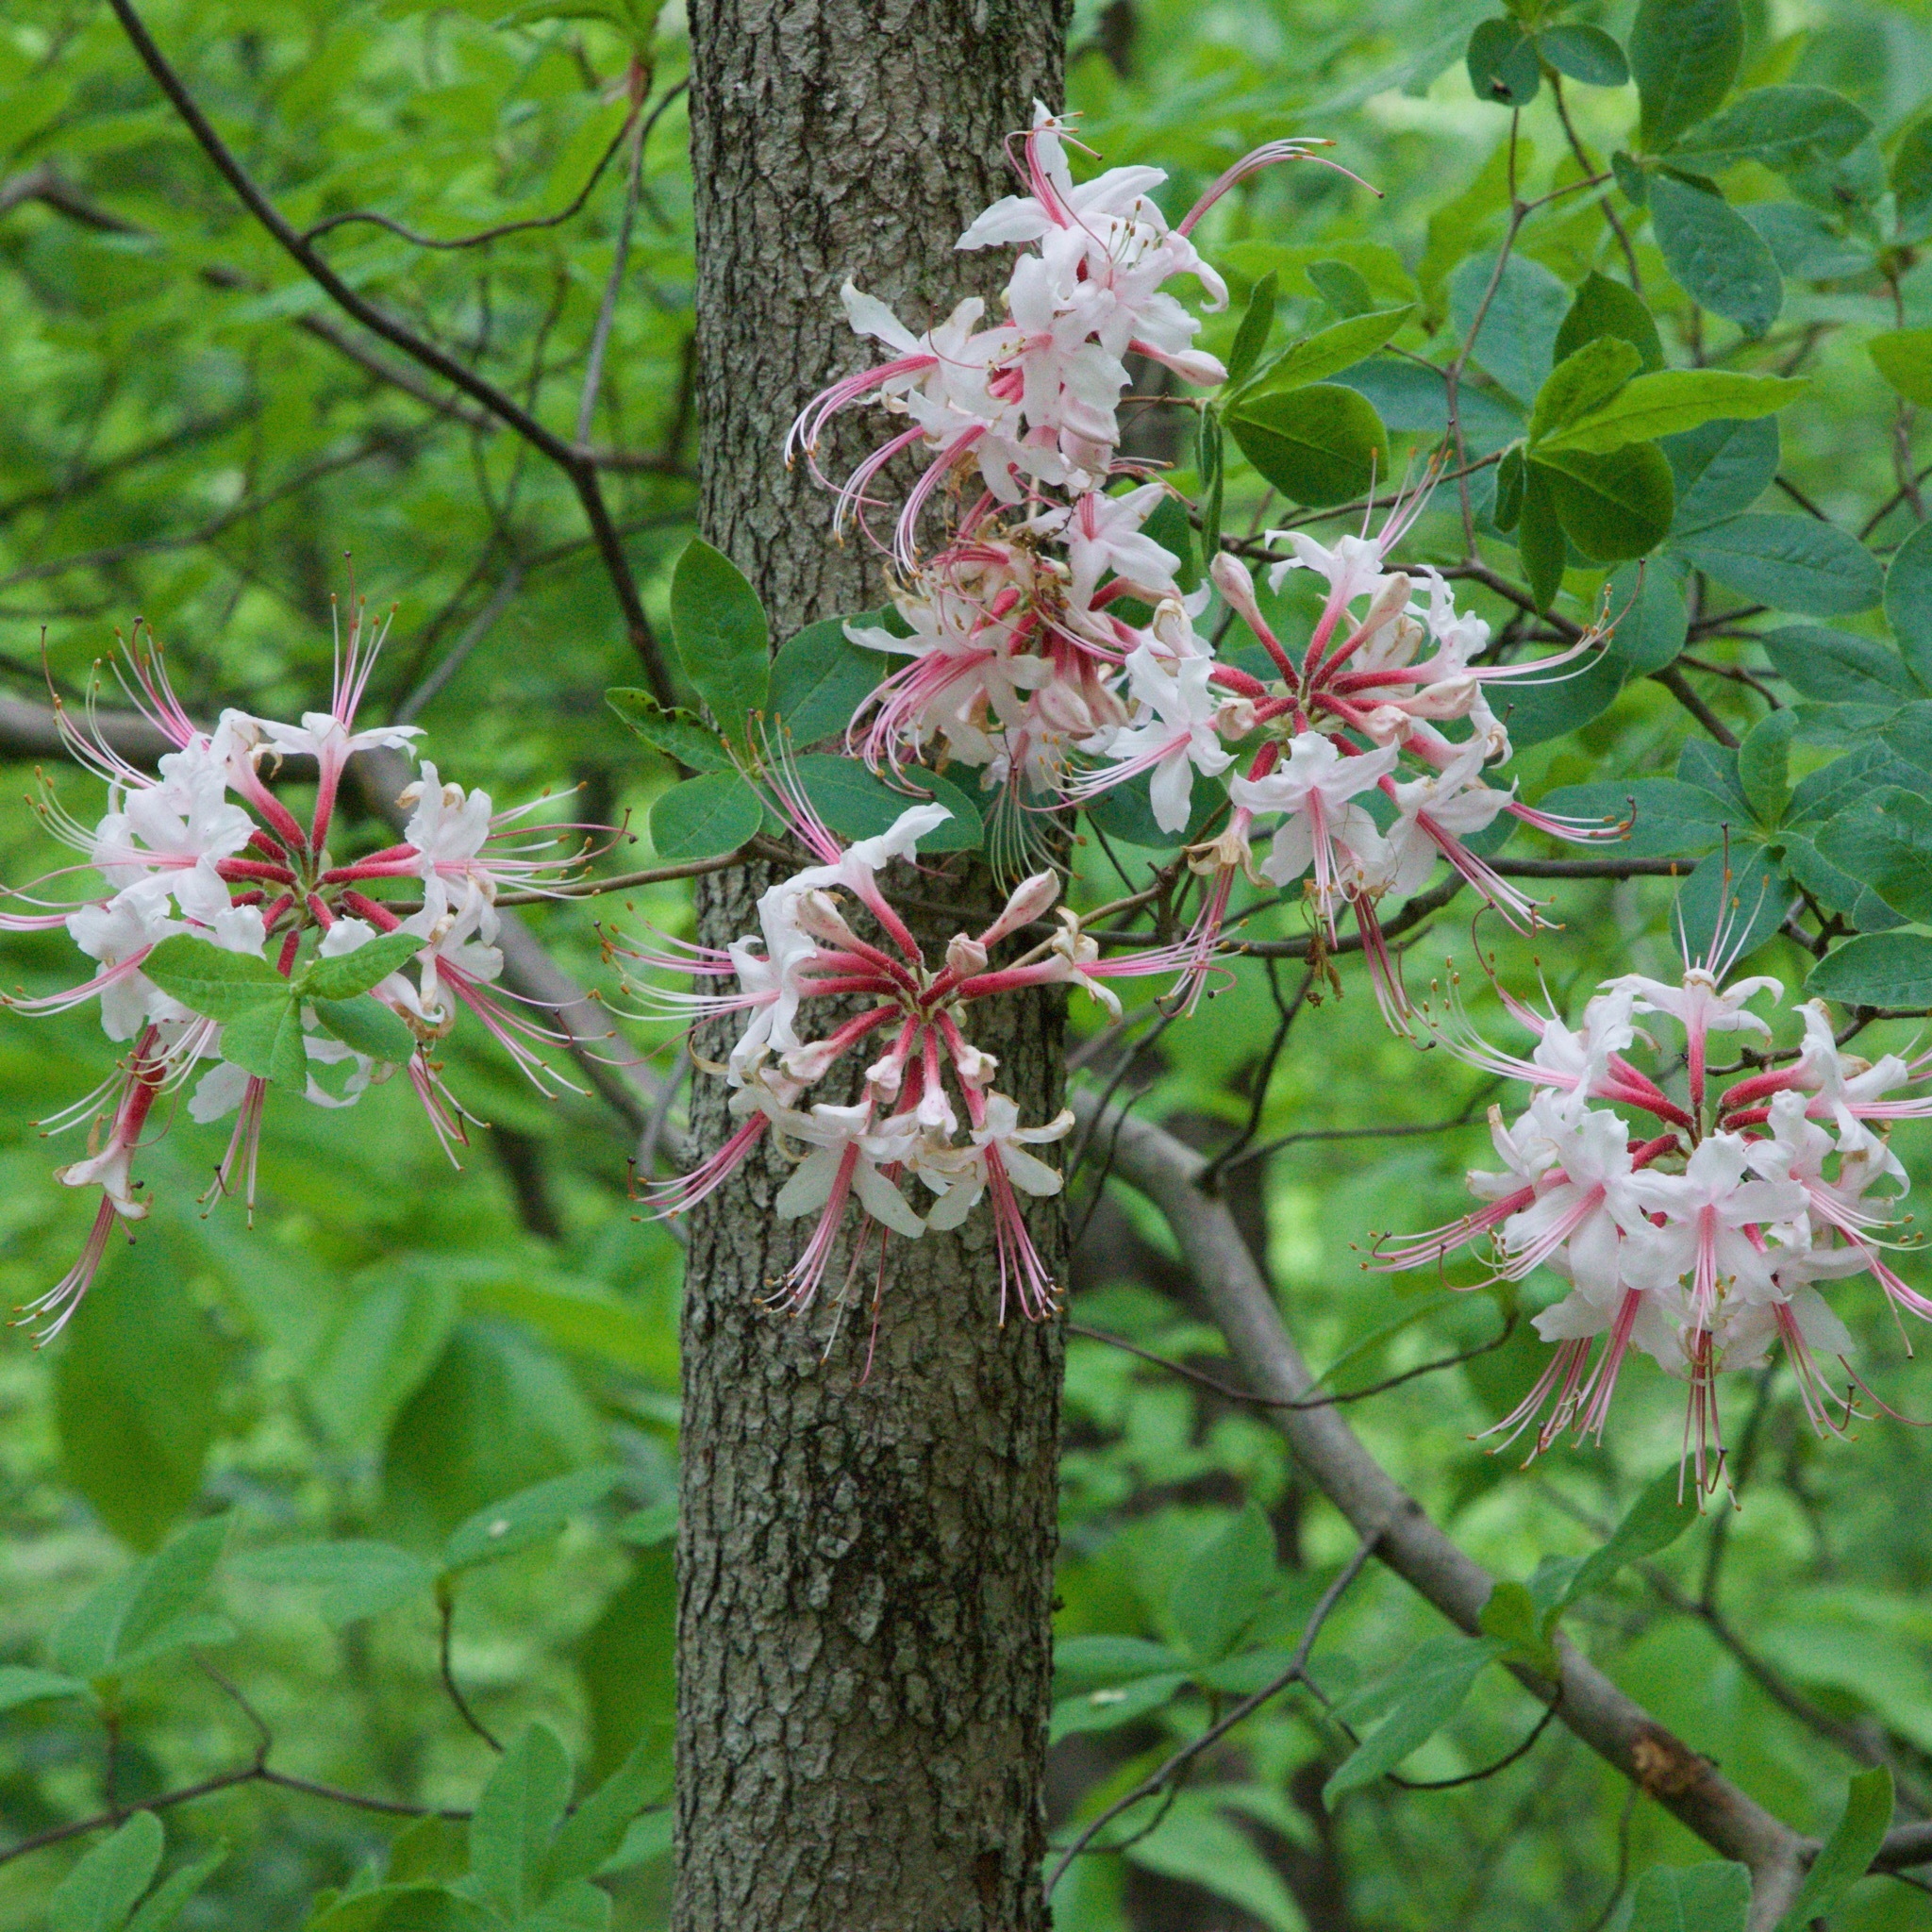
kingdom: Plantae
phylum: Tracheophyta
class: Magnoliopsida
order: Ericales
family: Ericaceae
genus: Rhododendron
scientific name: Rhododendron periclymenoides
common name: Election-pink
